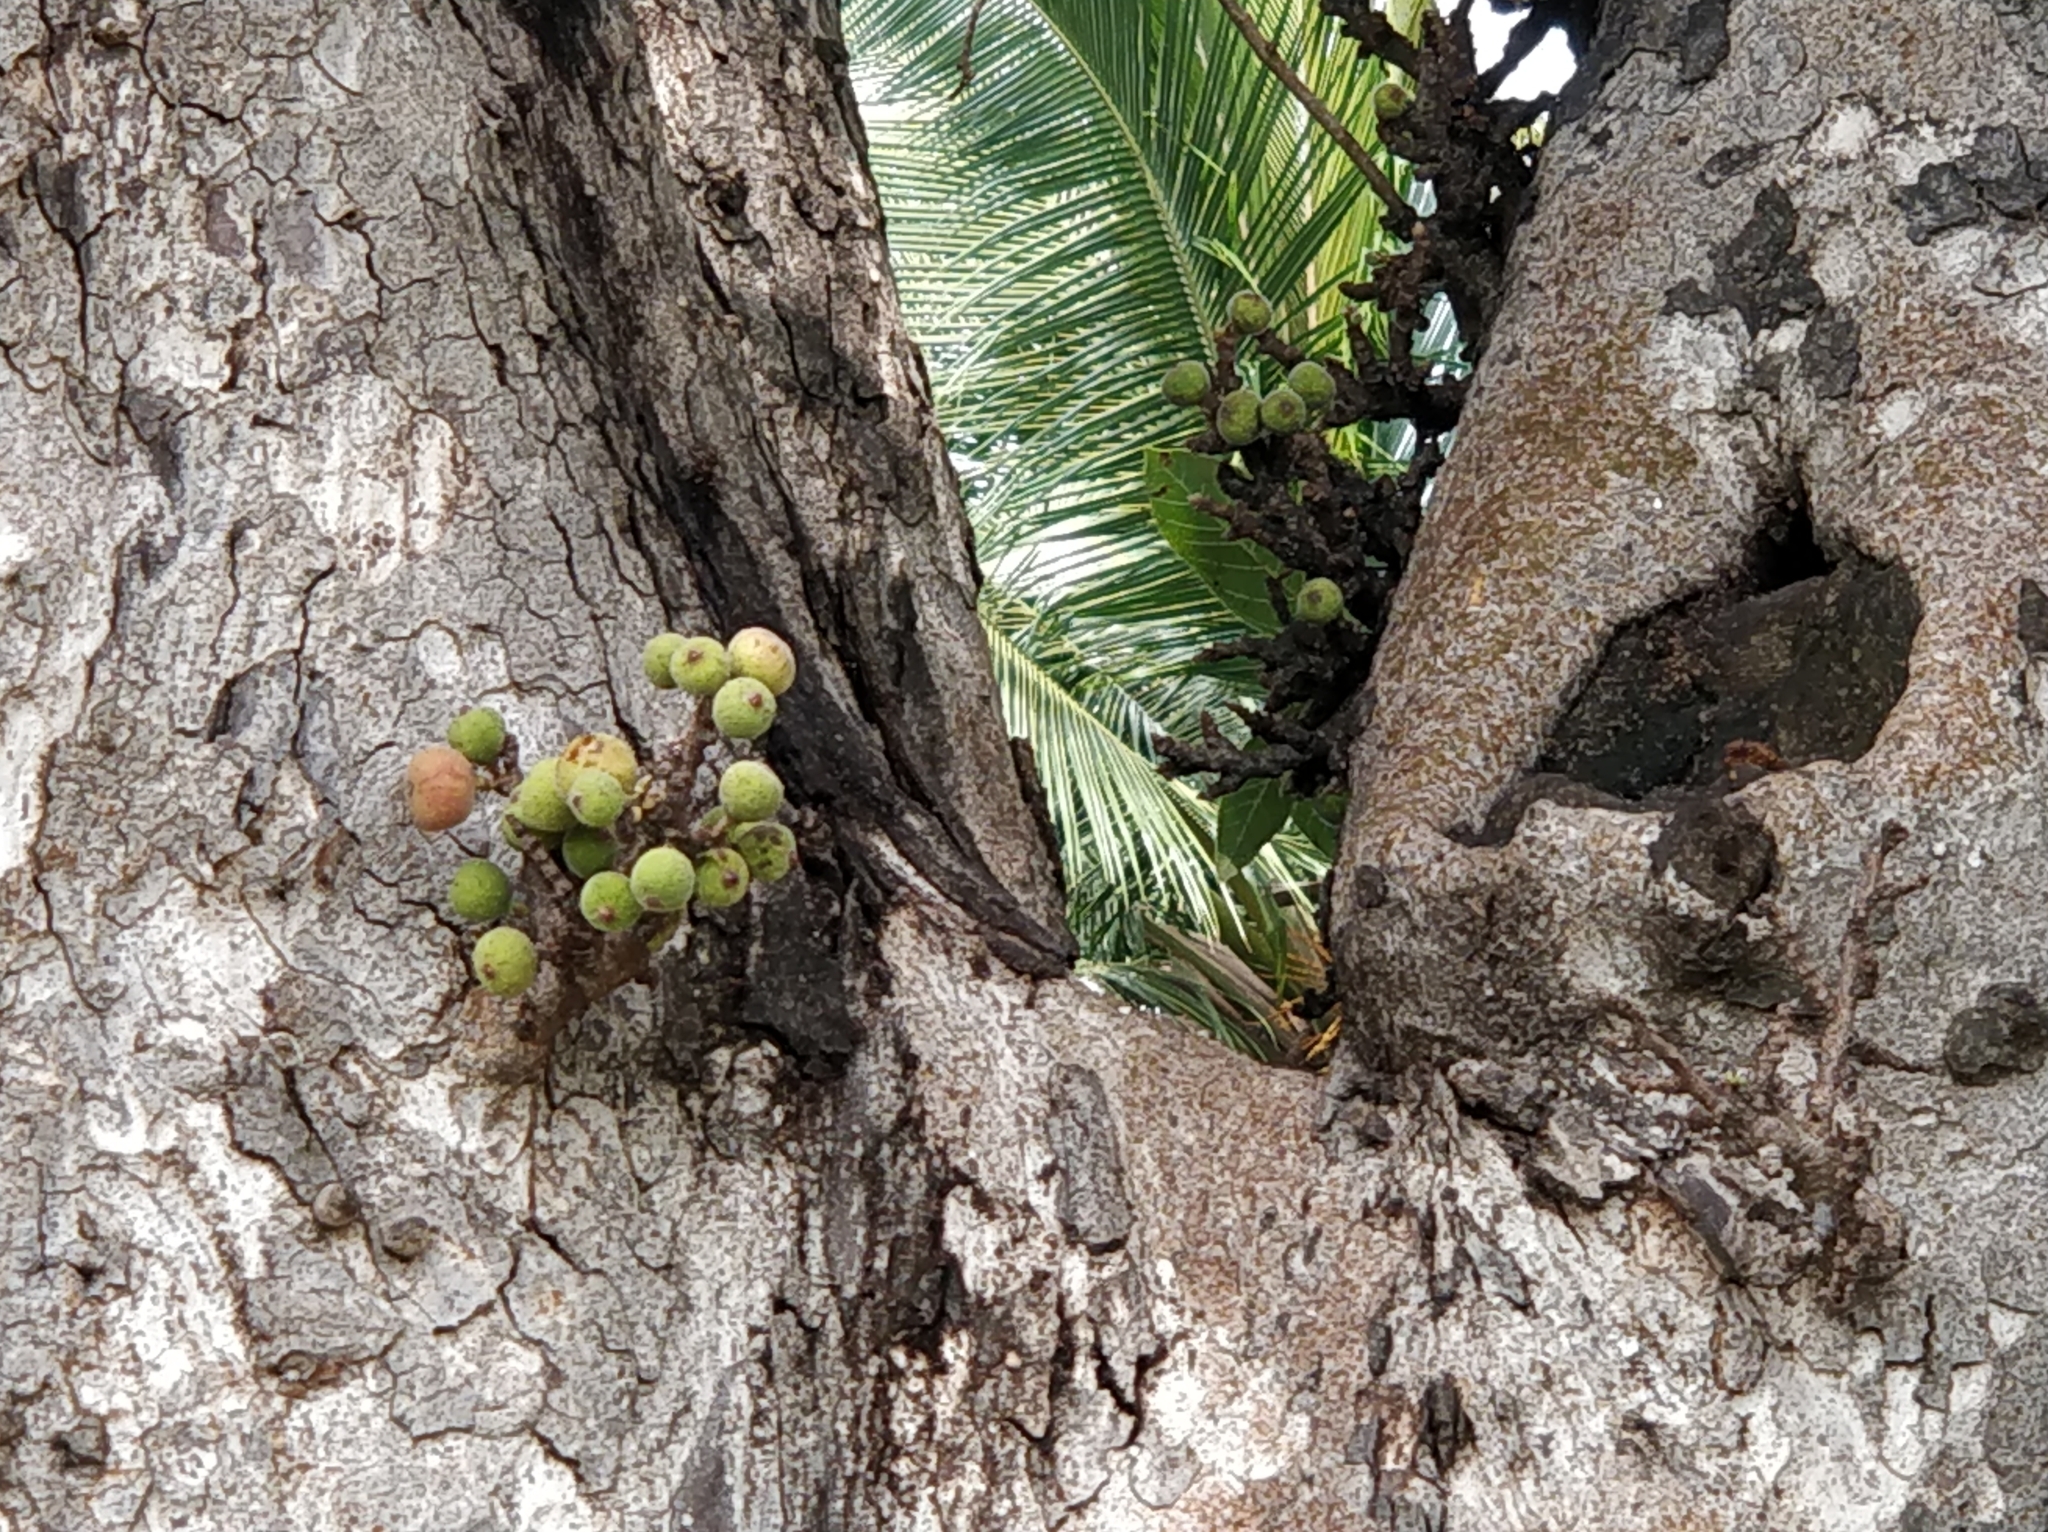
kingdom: Plantae
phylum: Tracheophyta
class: Magnoliopsida
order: Rosales
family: Moraceae
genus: Ficus
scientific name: Ficus racemosa
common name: Cluster fig
